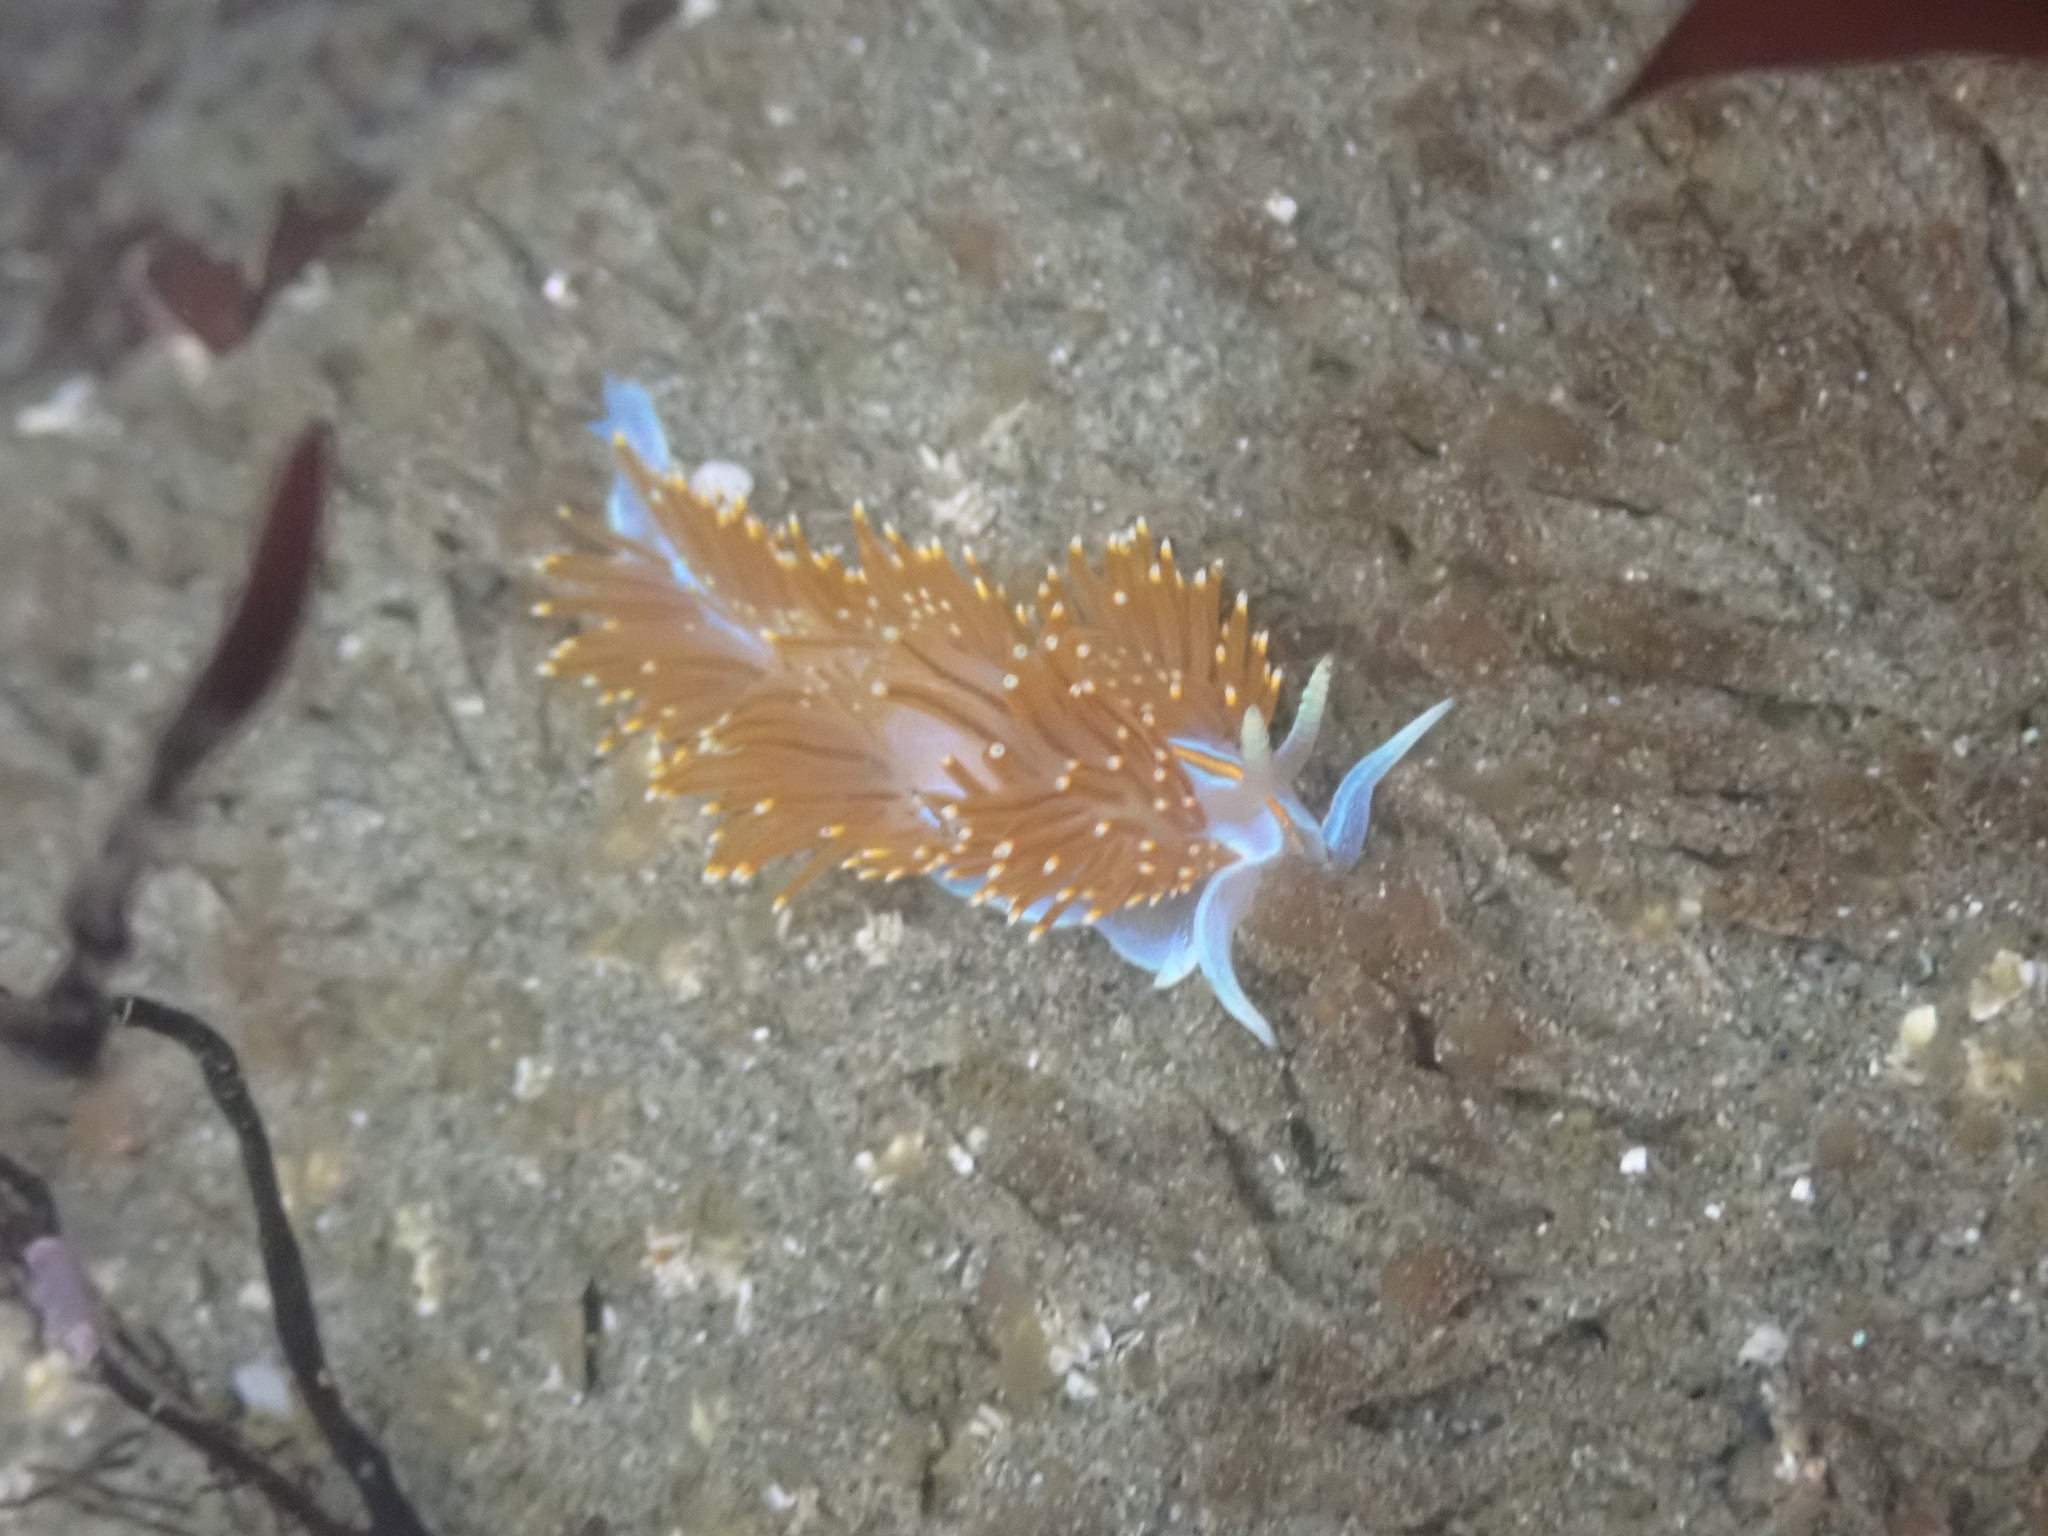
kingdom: Animalia
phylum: Mollusca
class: Gastropoda
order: Nudibranchia
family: Myrrhinidae
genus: Hermissenda
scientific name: Hermissenda opalescens
